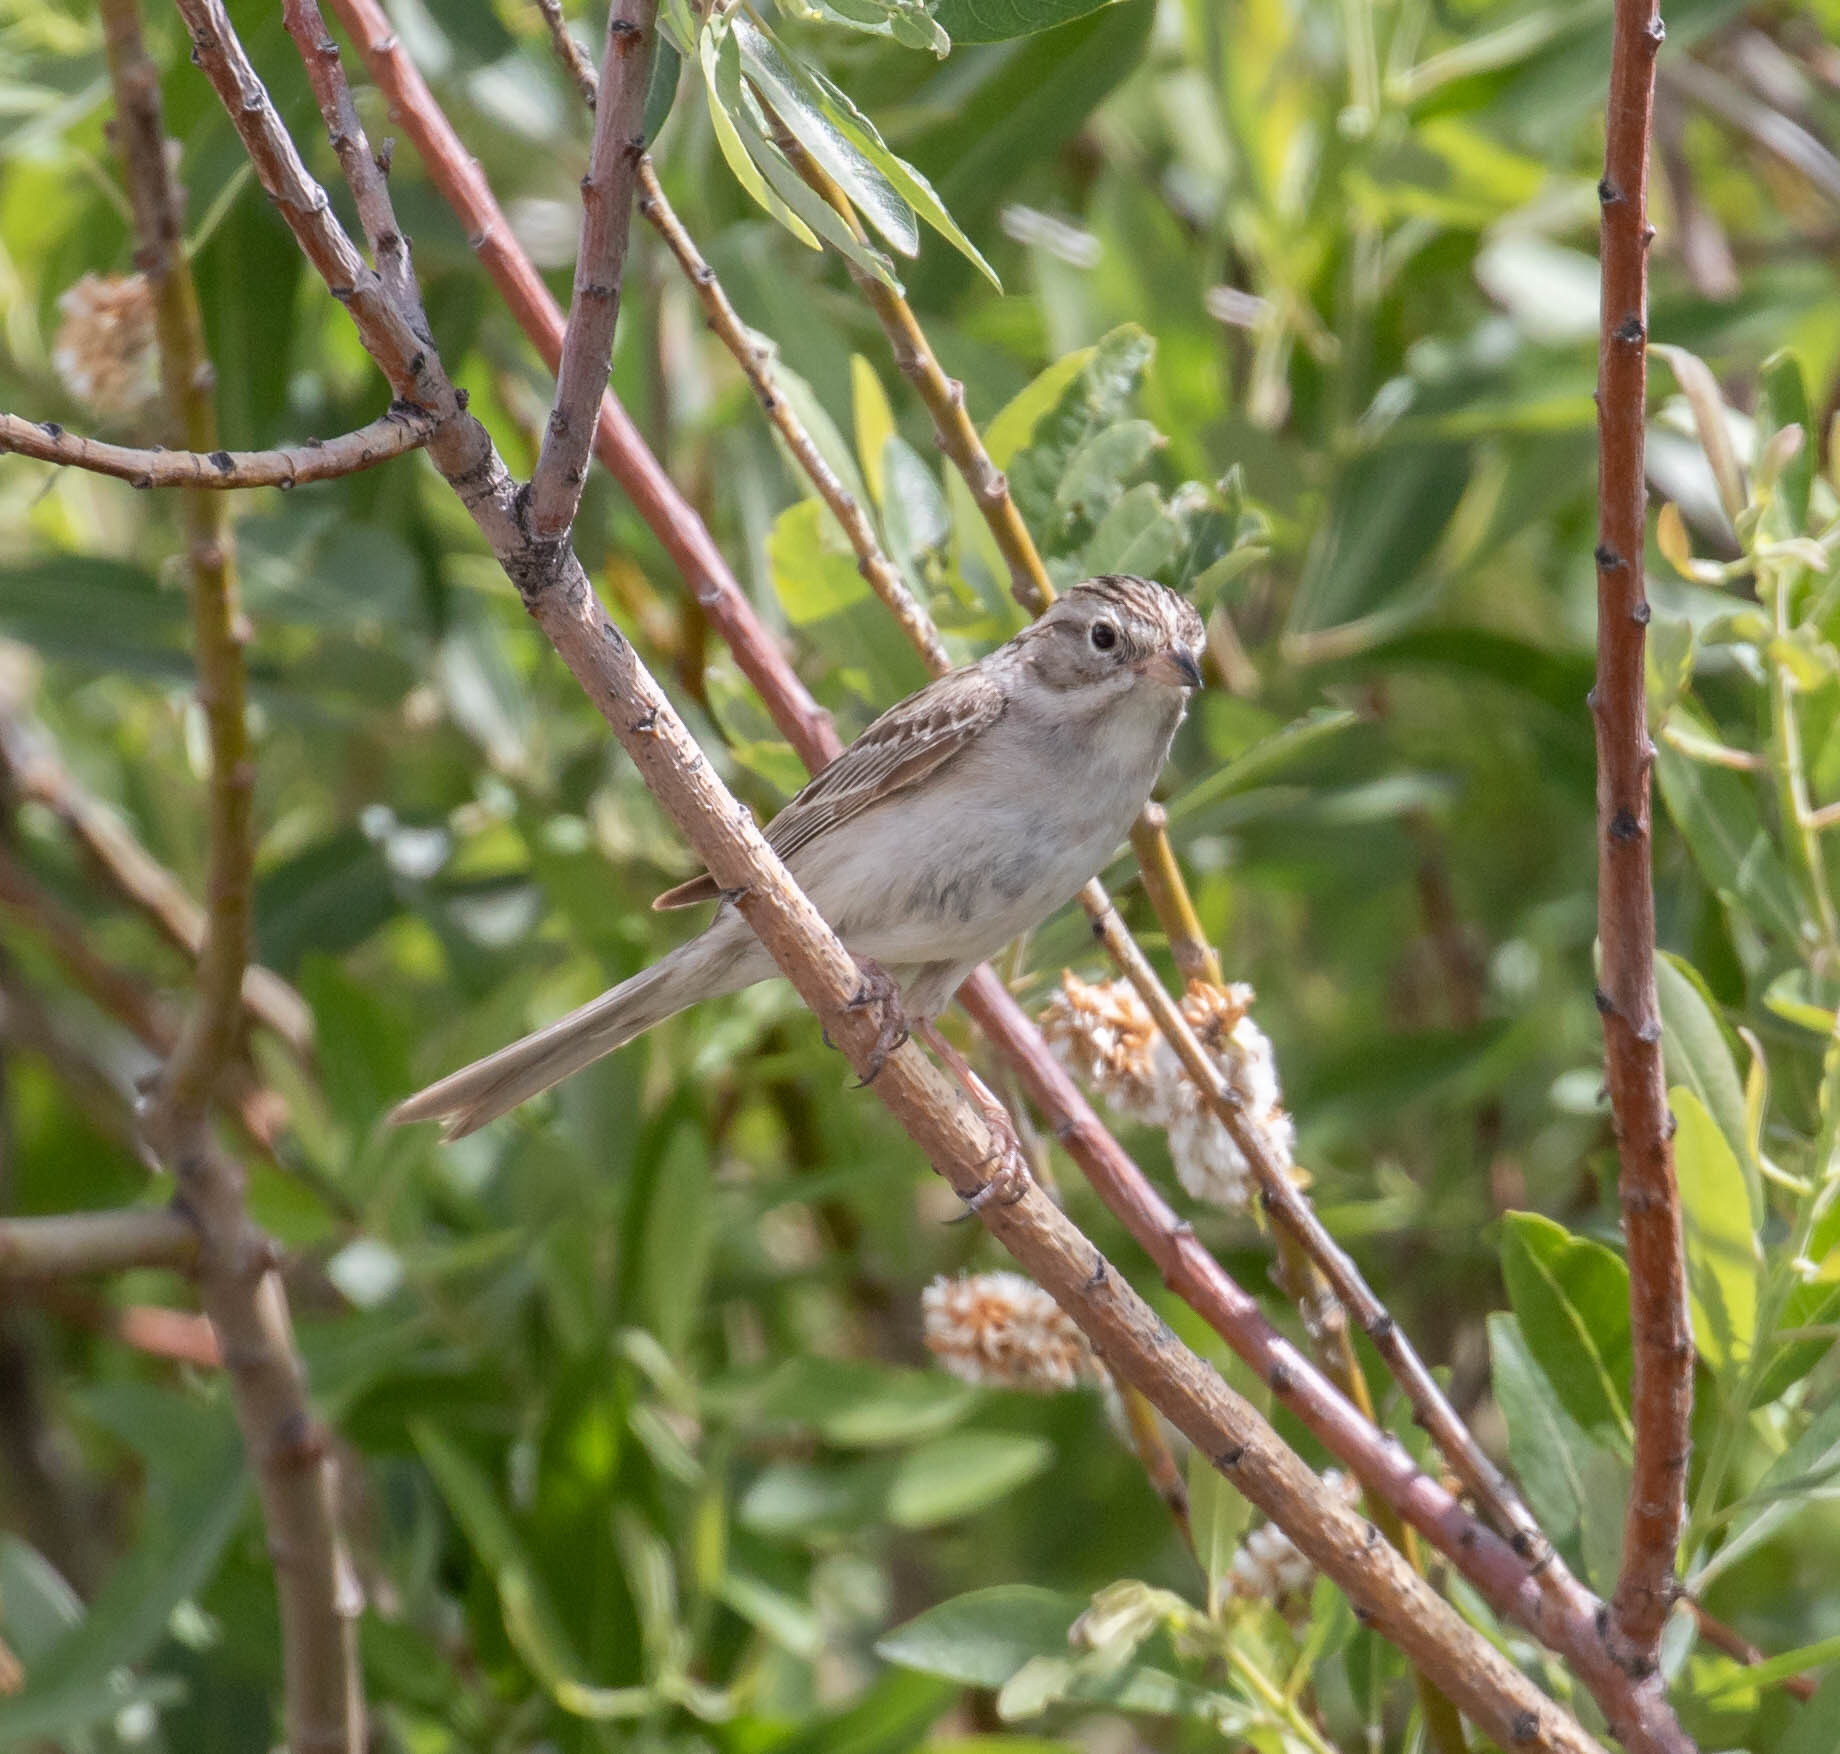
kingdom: Animalia
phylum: Chordata
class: Aves
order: Passeriformes
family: Passerellidae
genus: Spizella
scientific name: Spizella breweri
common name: Brewer's sparrow
